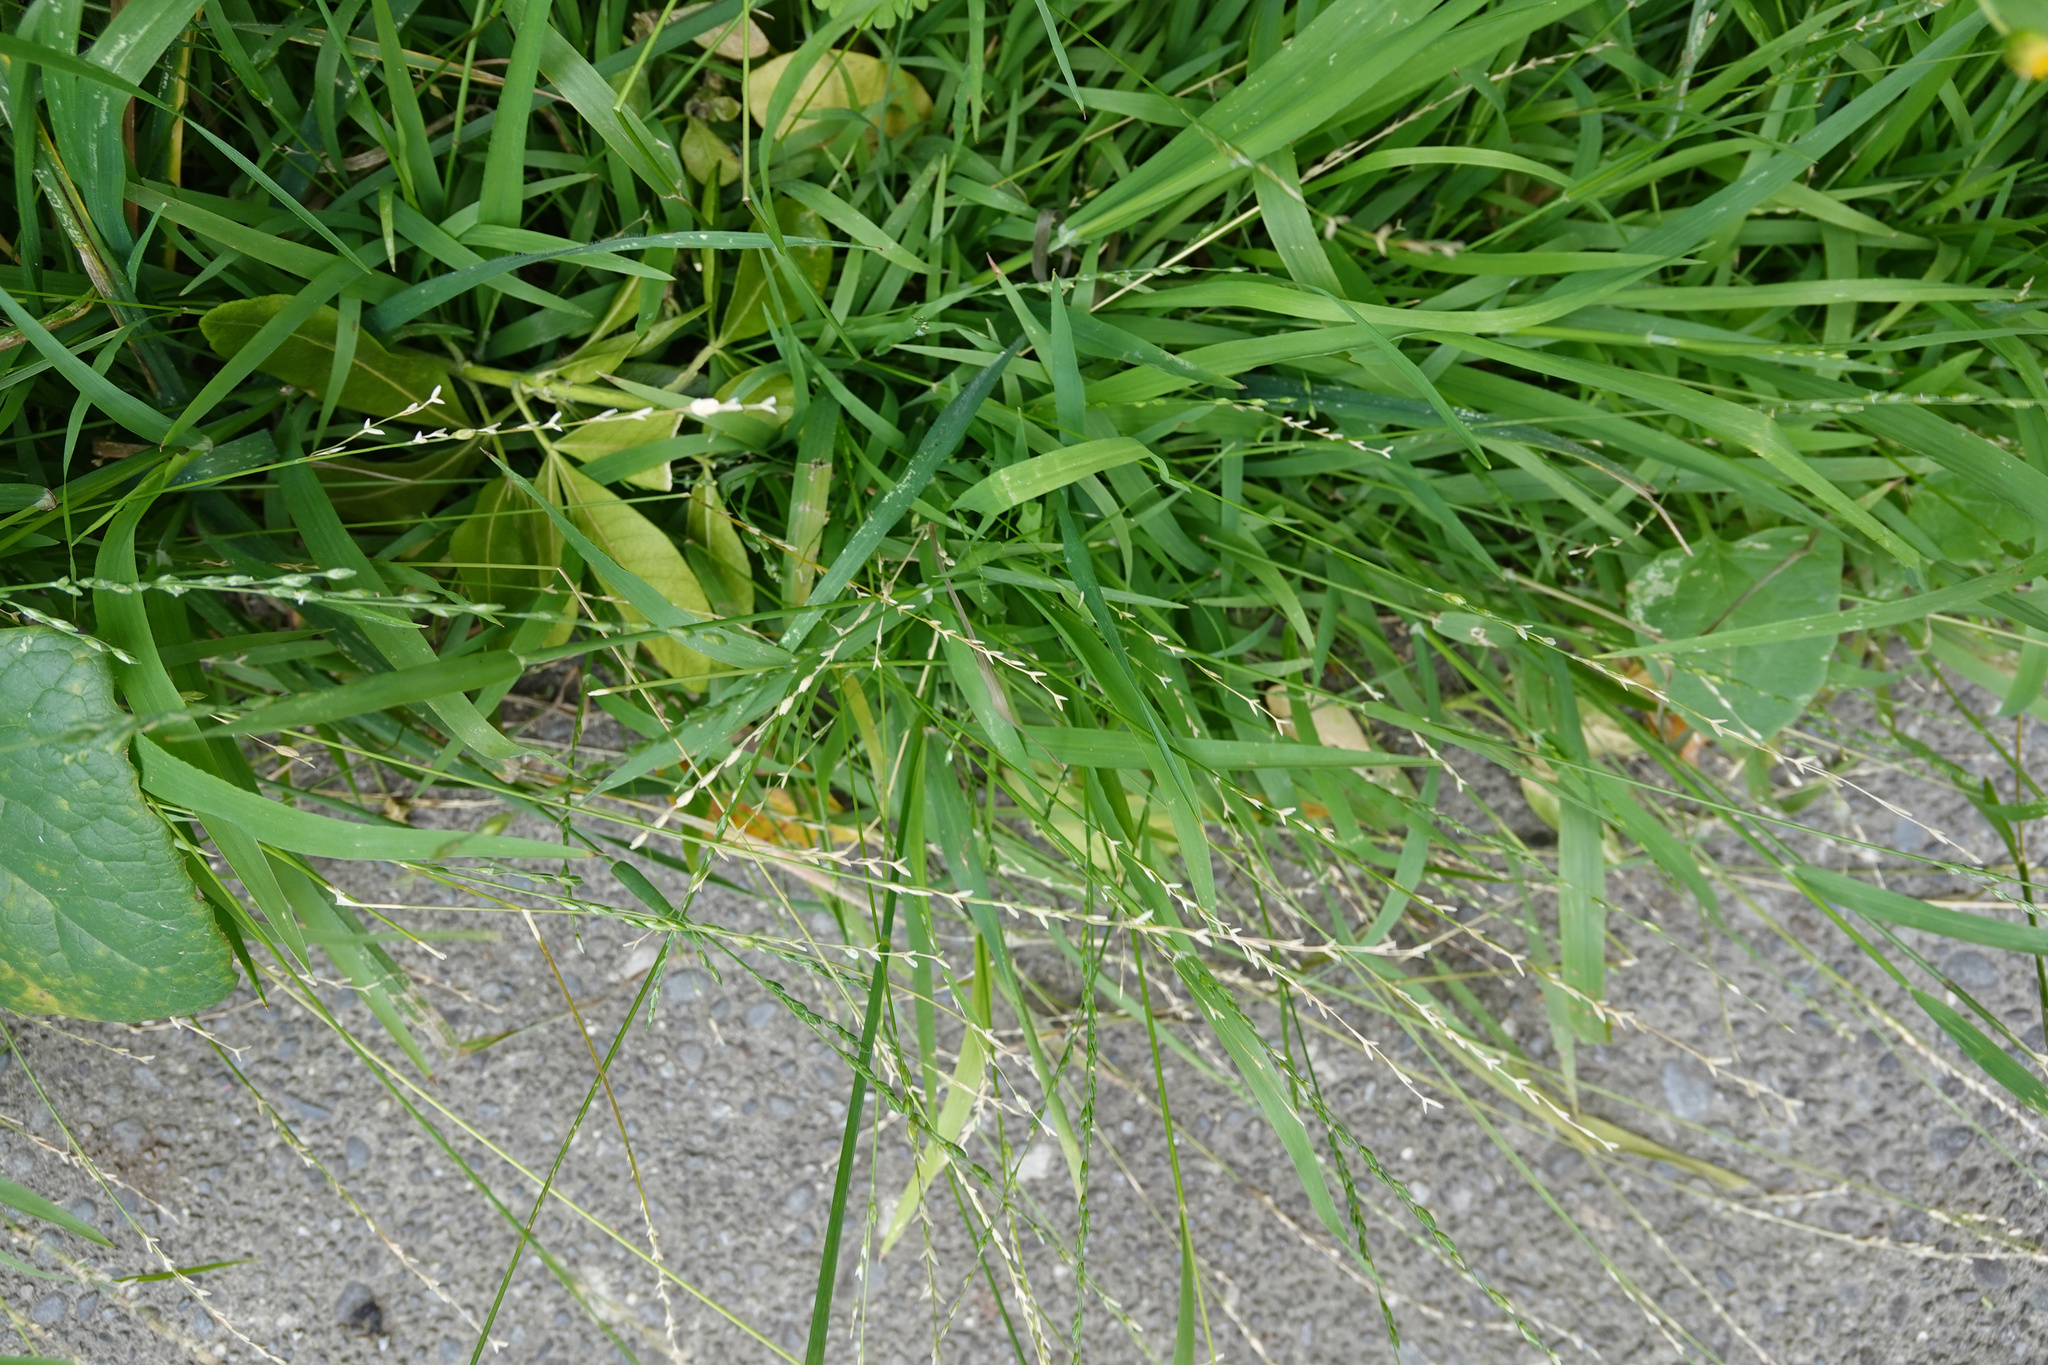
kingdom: Plantae
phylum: Tracheophyta
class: Liliopsida
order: Poales
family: Poaceae
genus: Ehrharta
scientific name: Ehrharta erecta
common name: Panic veldtgrass
